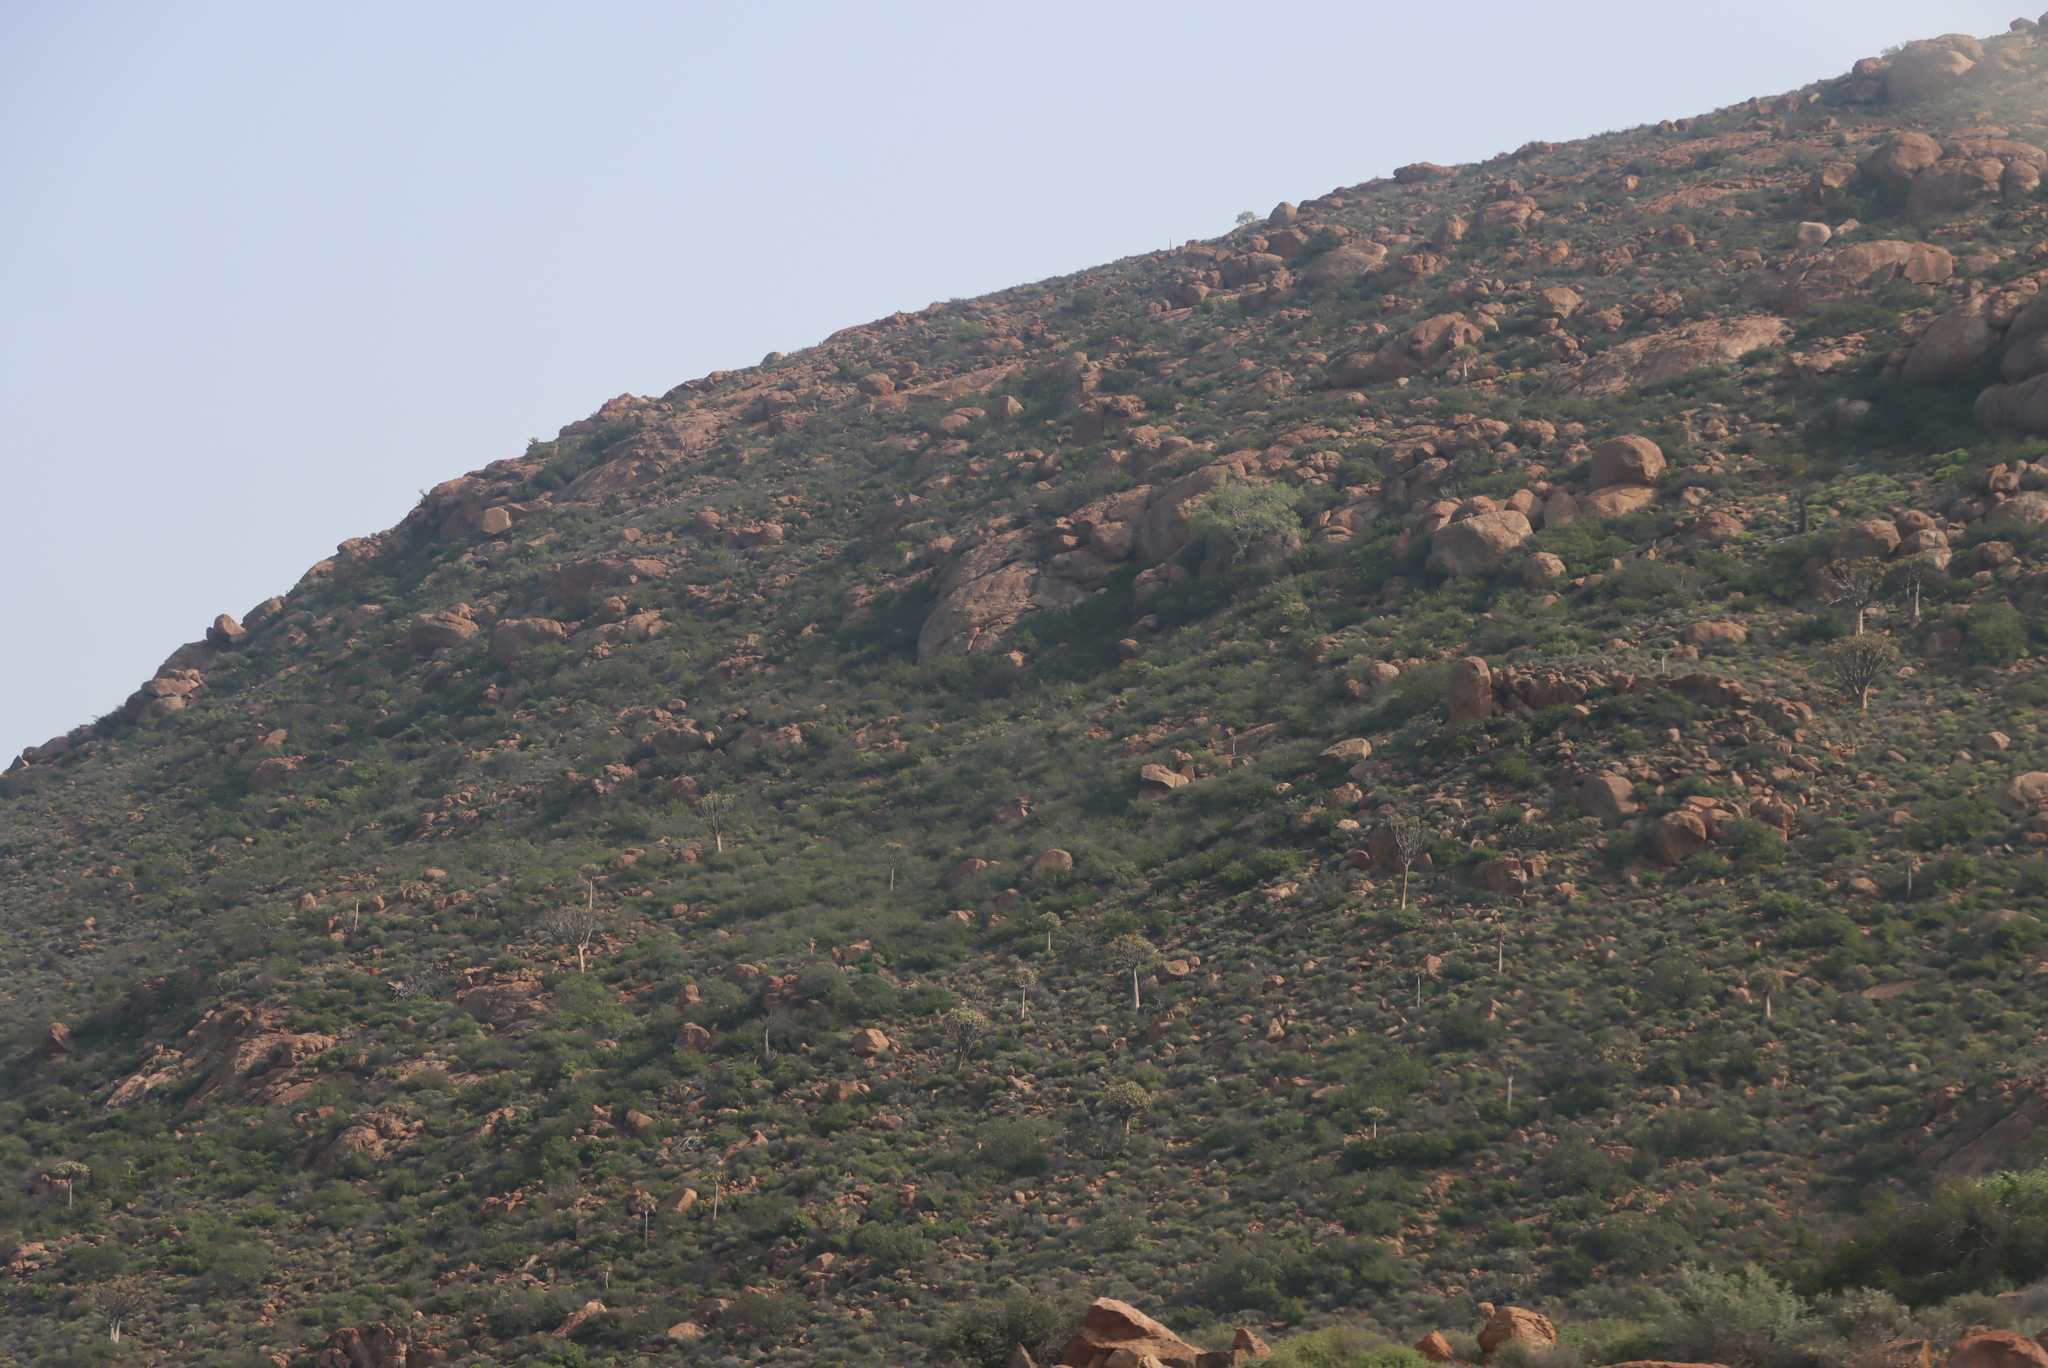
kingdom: Plantae
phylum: Tracheophyta
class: Liliopsida
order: Asparagales
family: Asphodelaceae
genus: Aloidendron
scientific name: Aloidendron dichotomum
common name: Quiver tree
